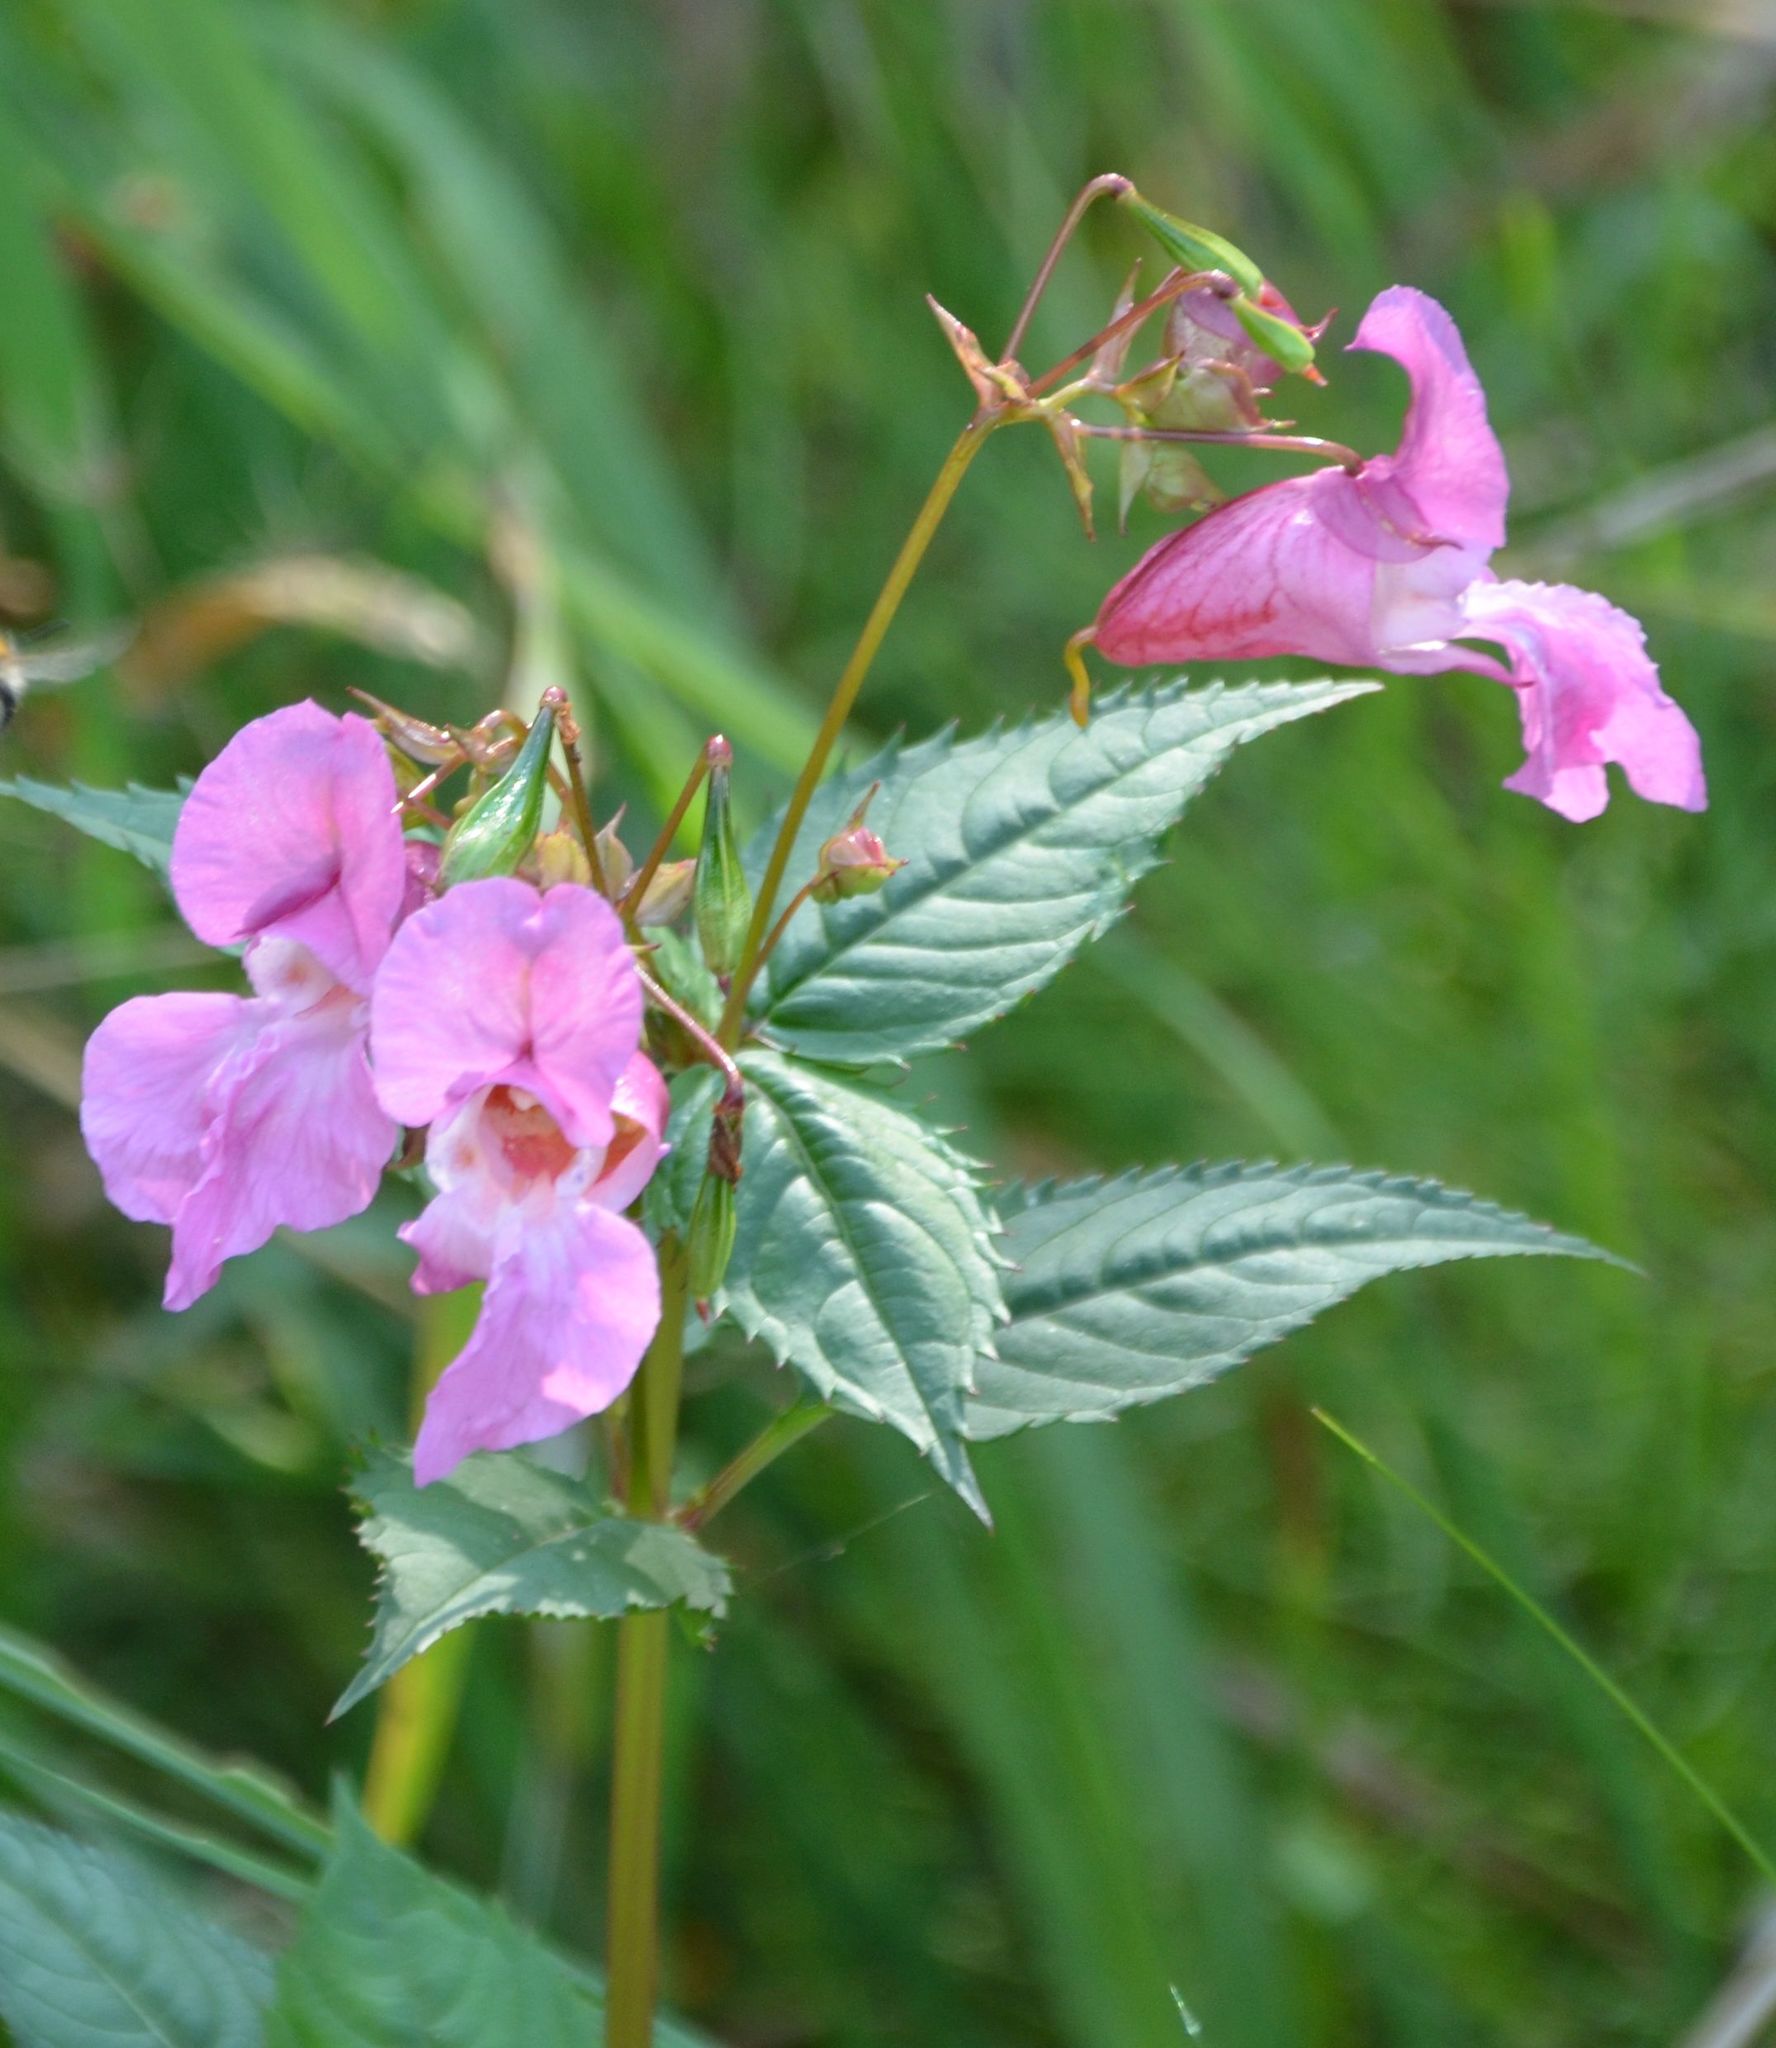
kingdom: Plantae
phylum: Tracheophyta
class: Magnoliopsida
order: Ericales
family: Balsaminaceae
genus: Impatiens
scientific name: Impatiens glandulifera
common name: Himalayan balsam
